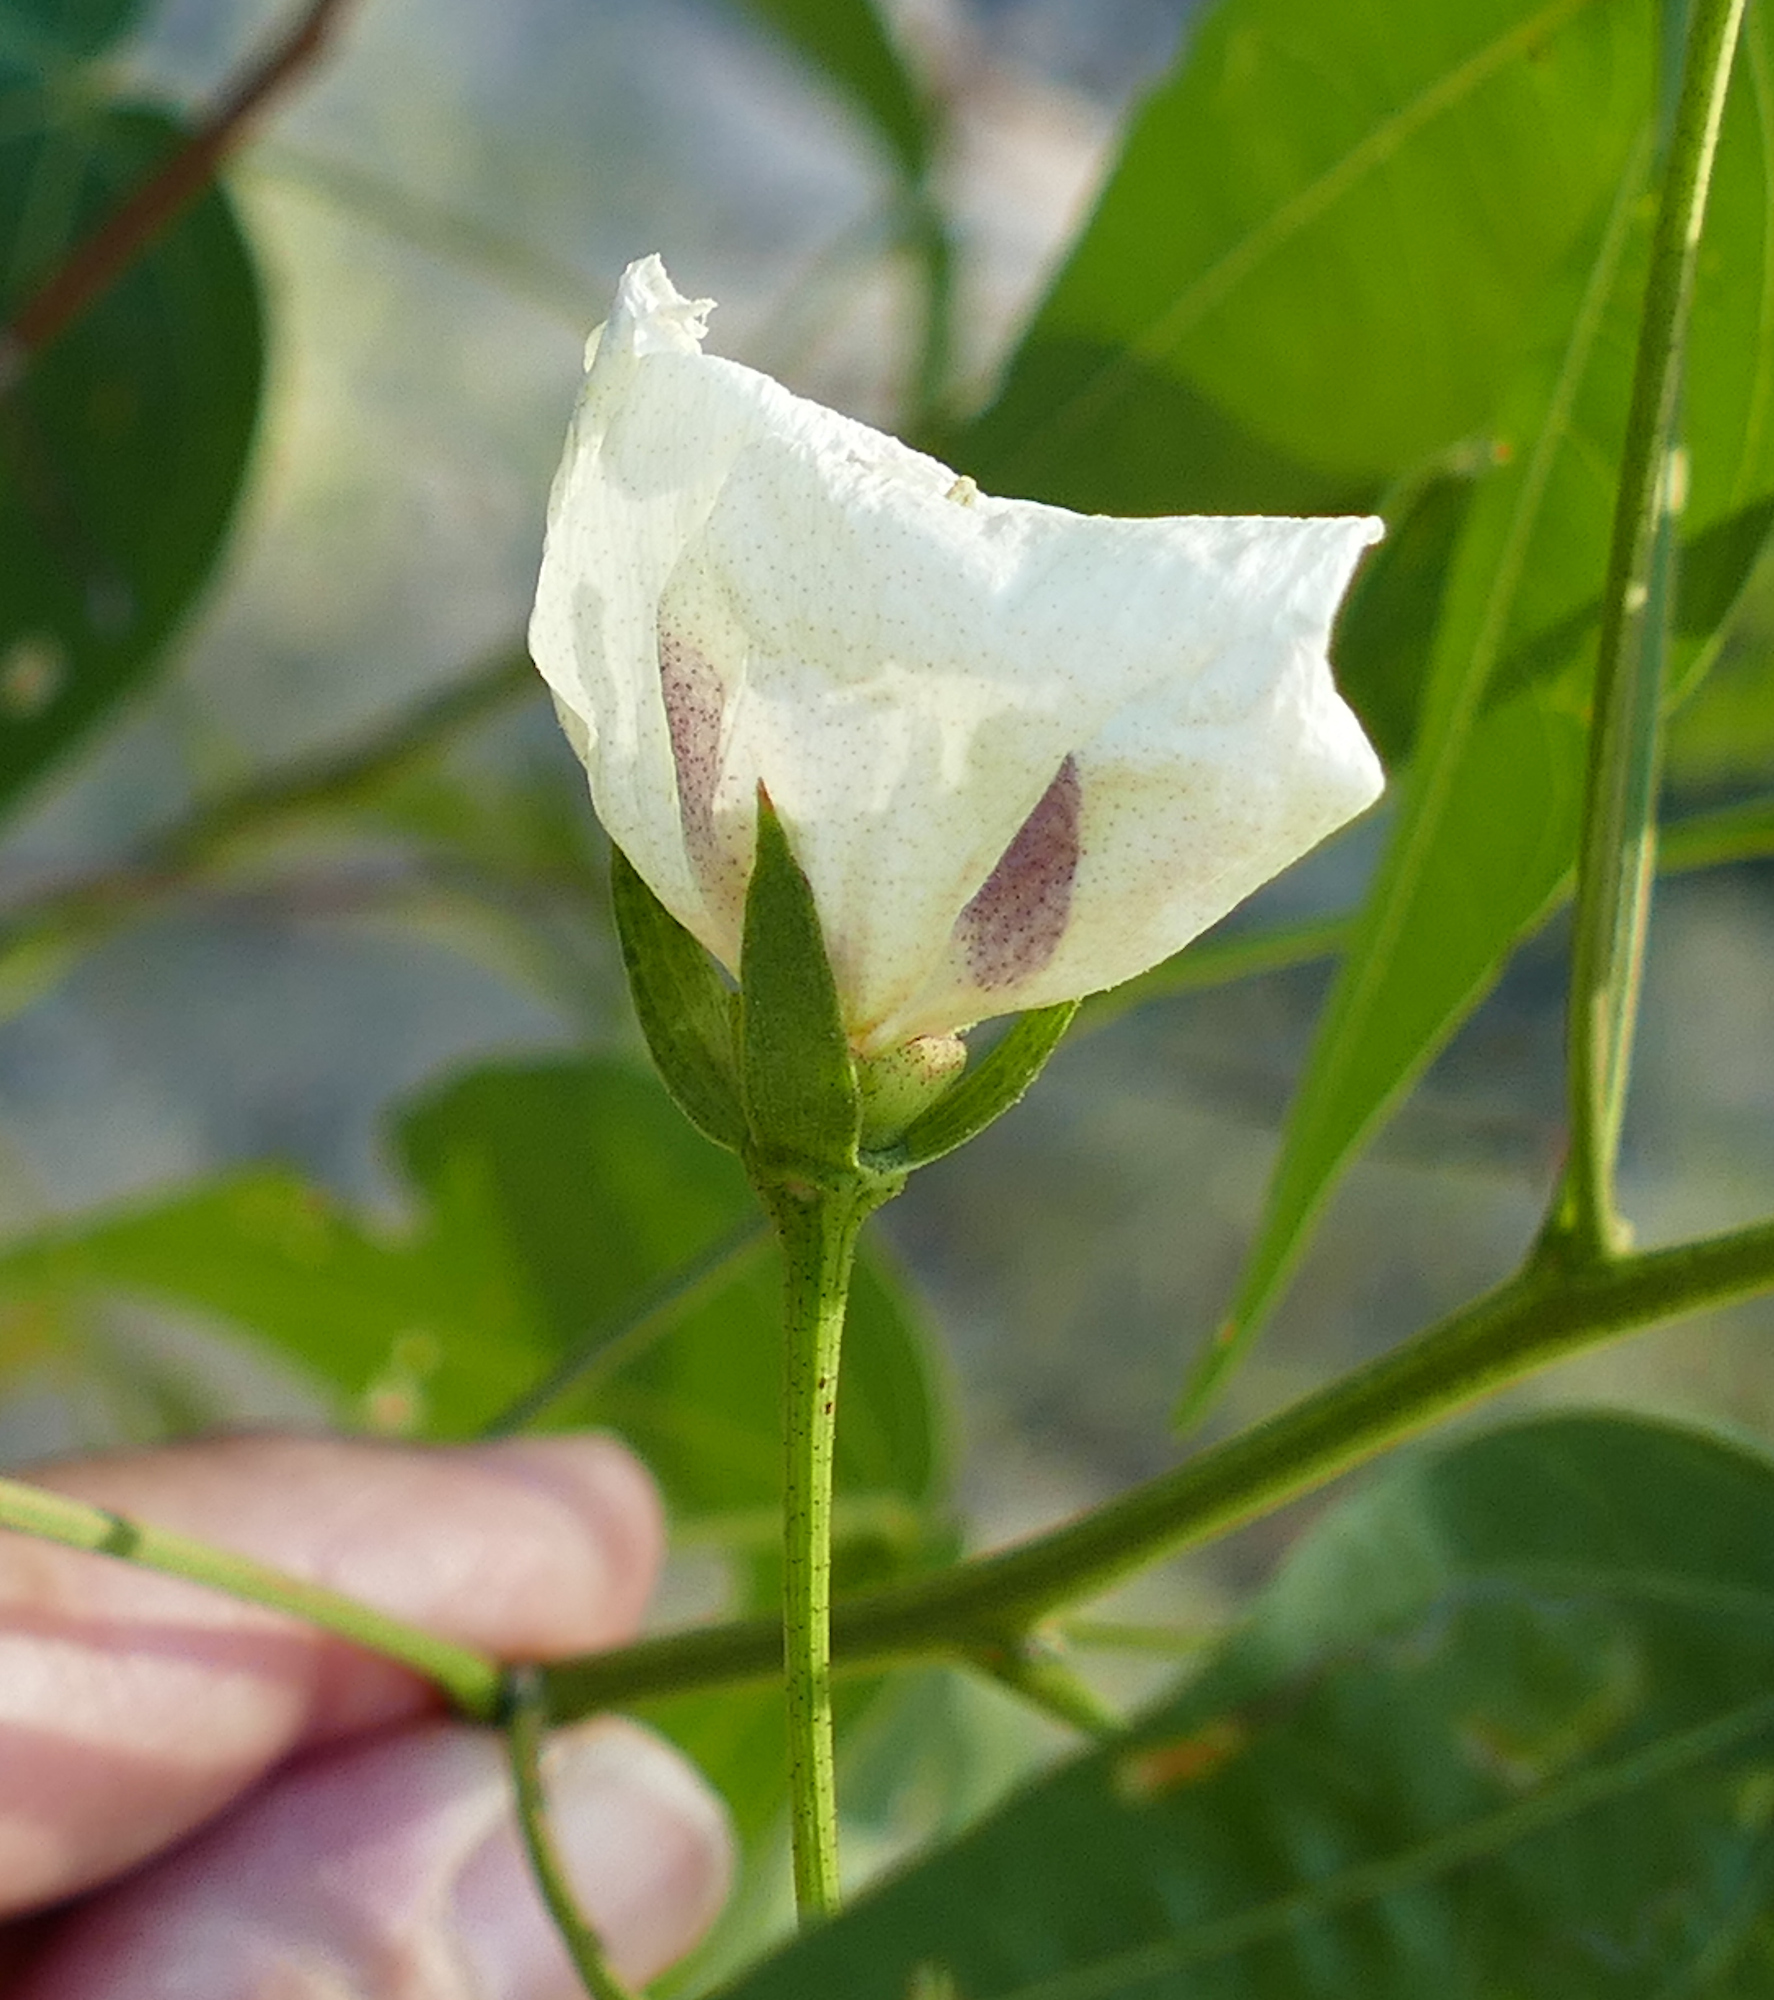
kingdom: Plantae
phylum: Tracheophyta
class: Magnoliopsida
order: Malvales
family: Malvaceae
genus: Gossypium
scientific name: Gossypium thurberi
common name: Desert cotton
